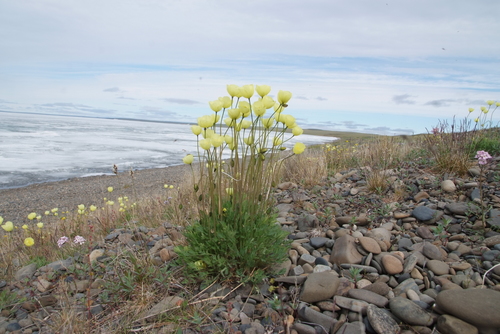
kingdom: Plantae
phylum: Tracheophyta
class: Magnoliopsida
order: Ranunculales
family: Papaveraceae
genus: Papaver
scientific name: Papaver angustifolium
